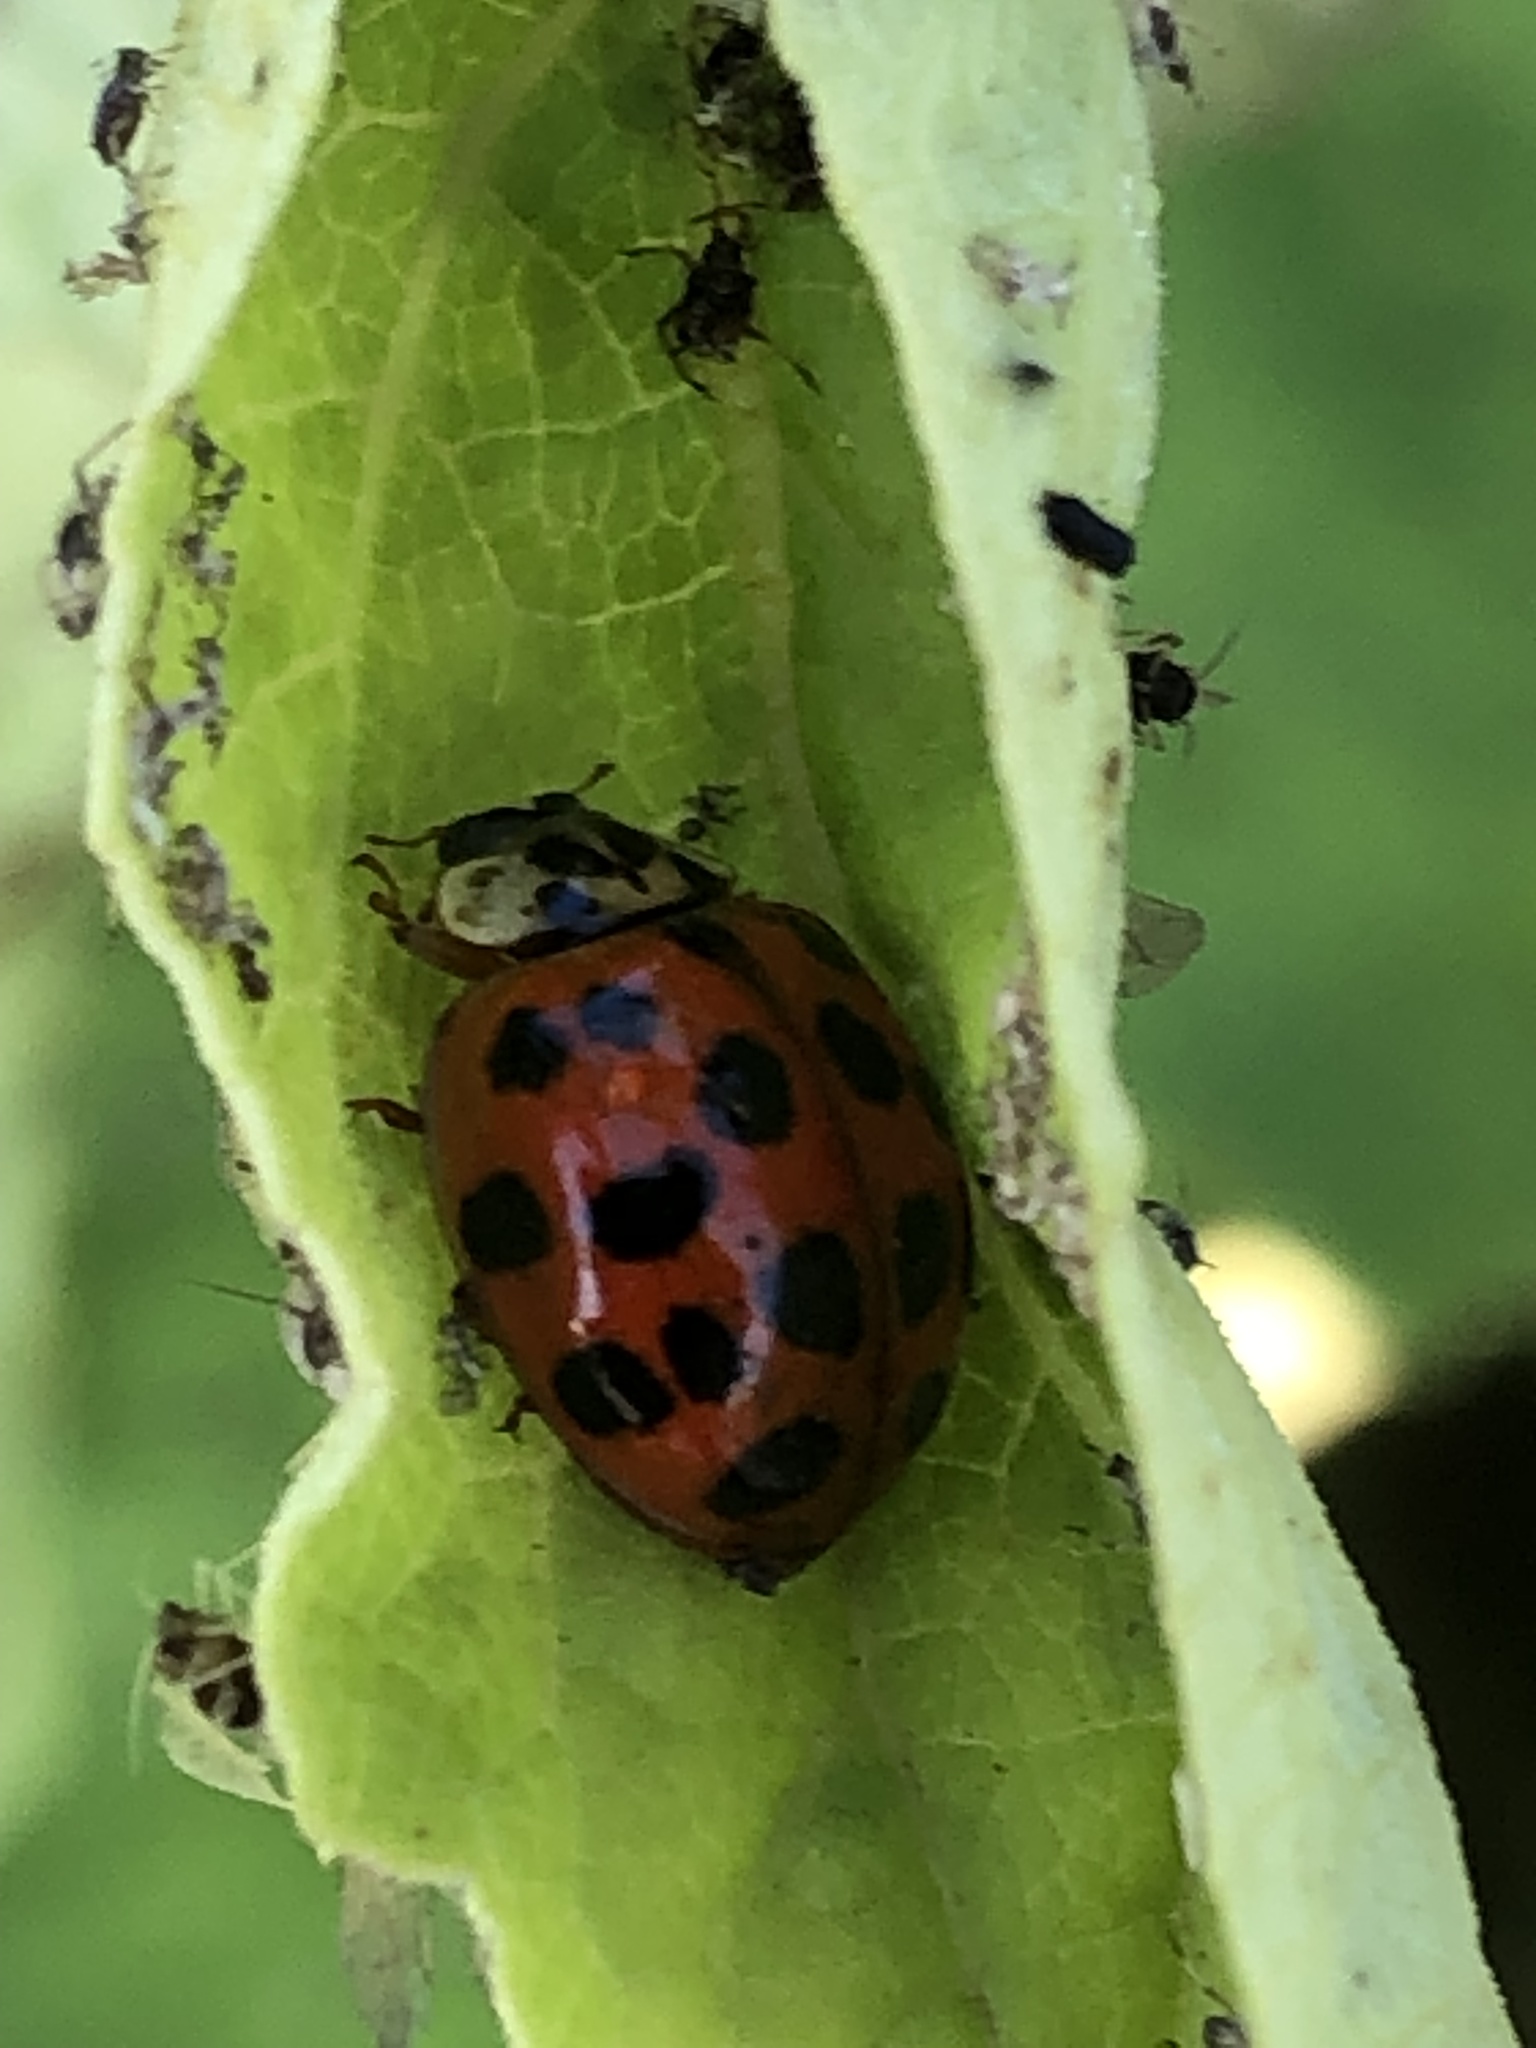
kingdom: Animalia
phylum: Arthropoda
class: Insecta
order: Coleoptera
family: Coccinellidae
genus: Harmonia
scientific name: Harmonia axyridis
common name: Harlequin ladybird
